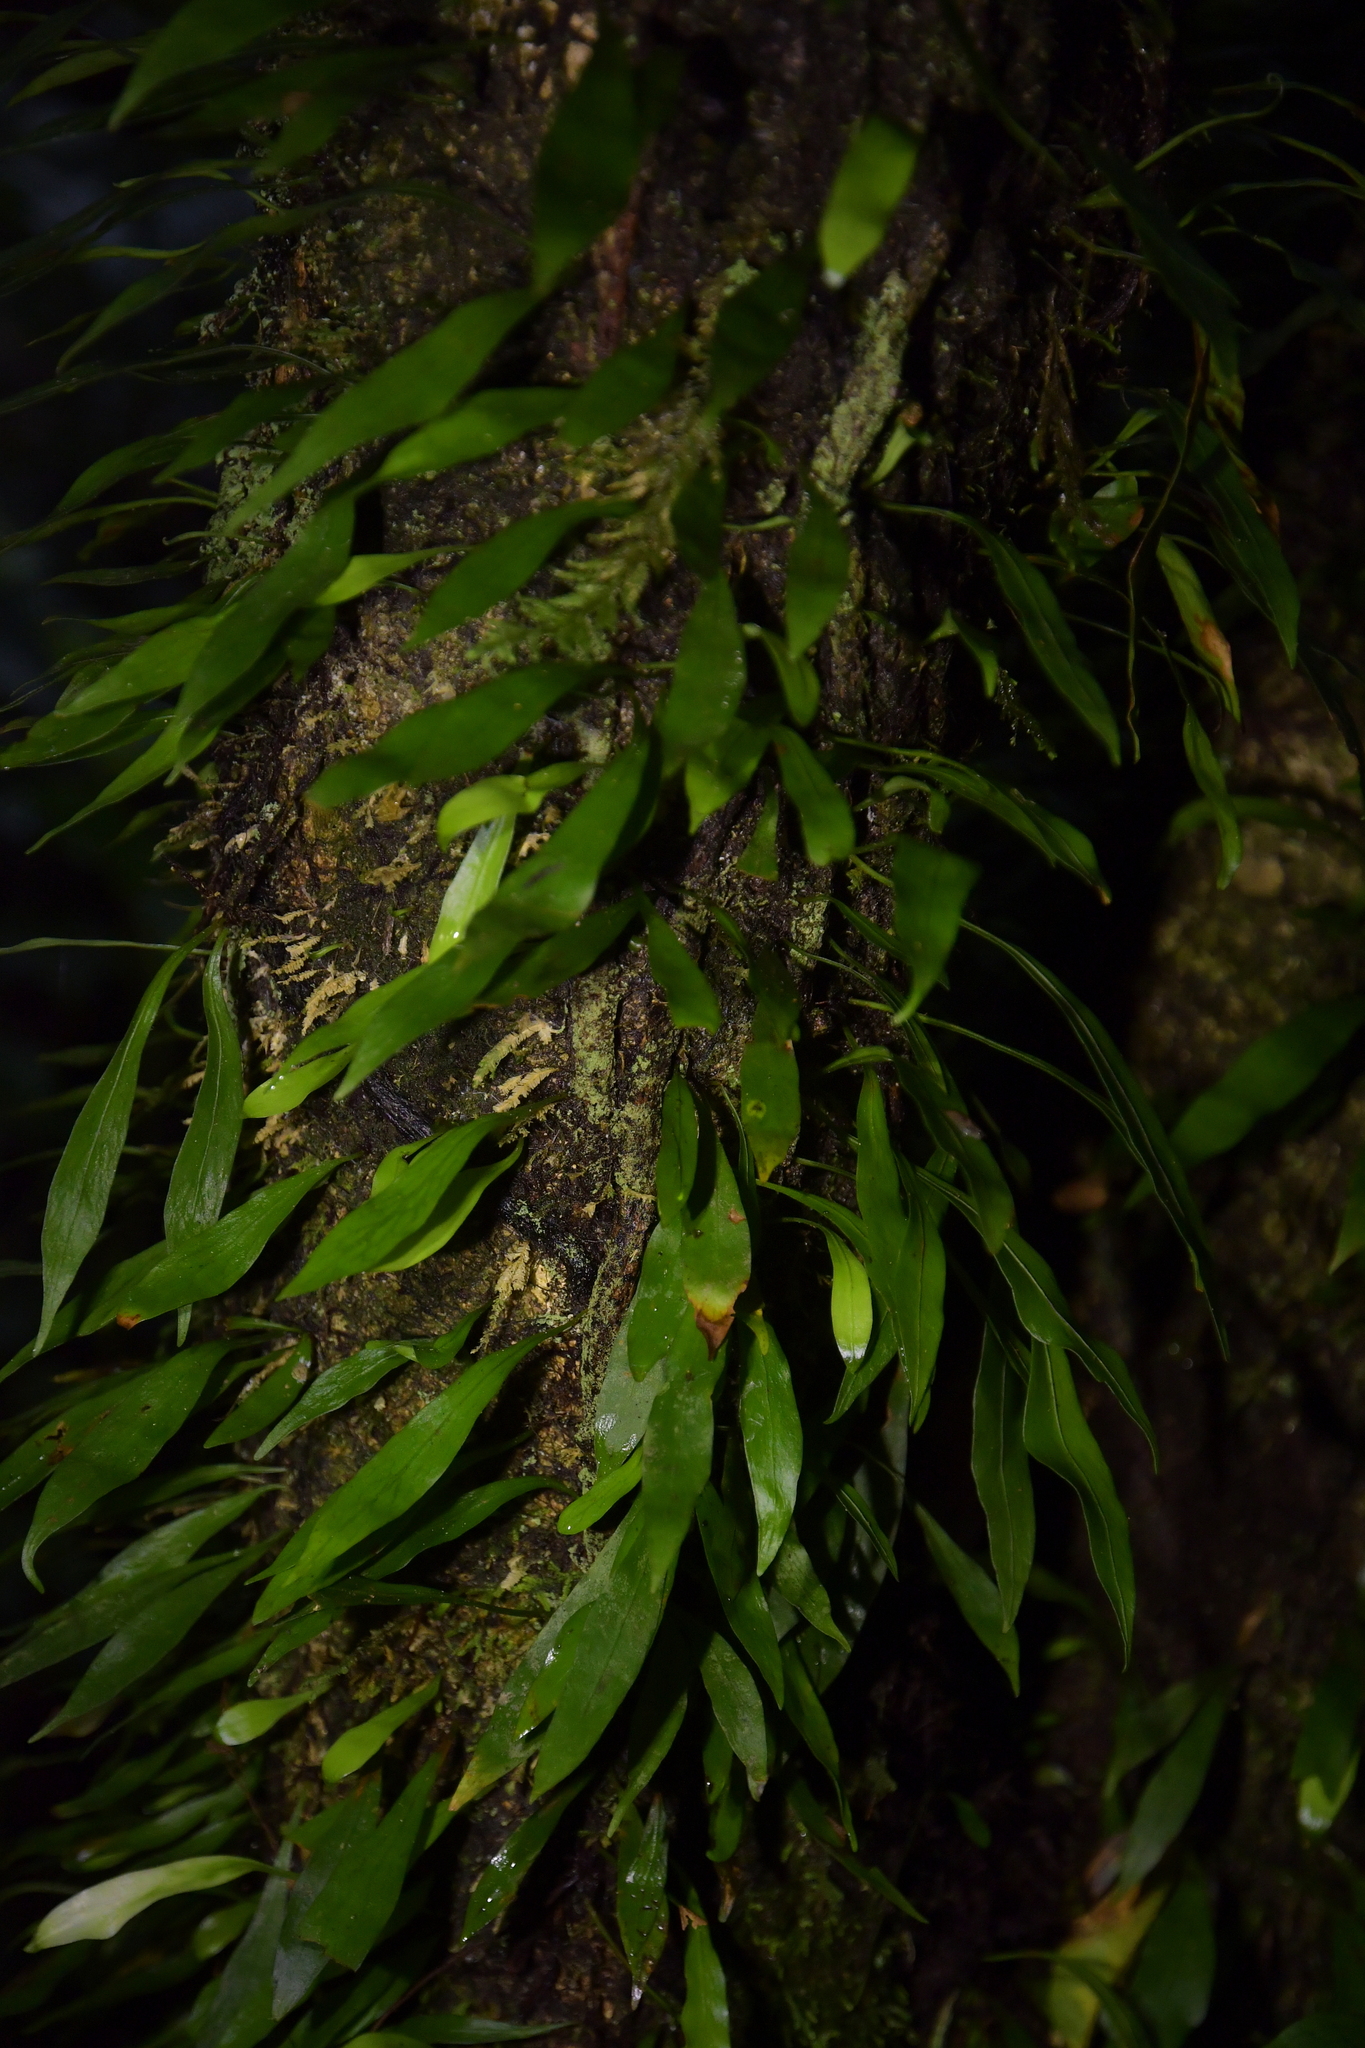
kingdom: Plantae
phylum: Tracheophyta
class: Polypodiopsida
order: Polypodiales
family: Polypodiaceae
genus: Loxogramme
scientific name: Loxogramme dictyopteris
